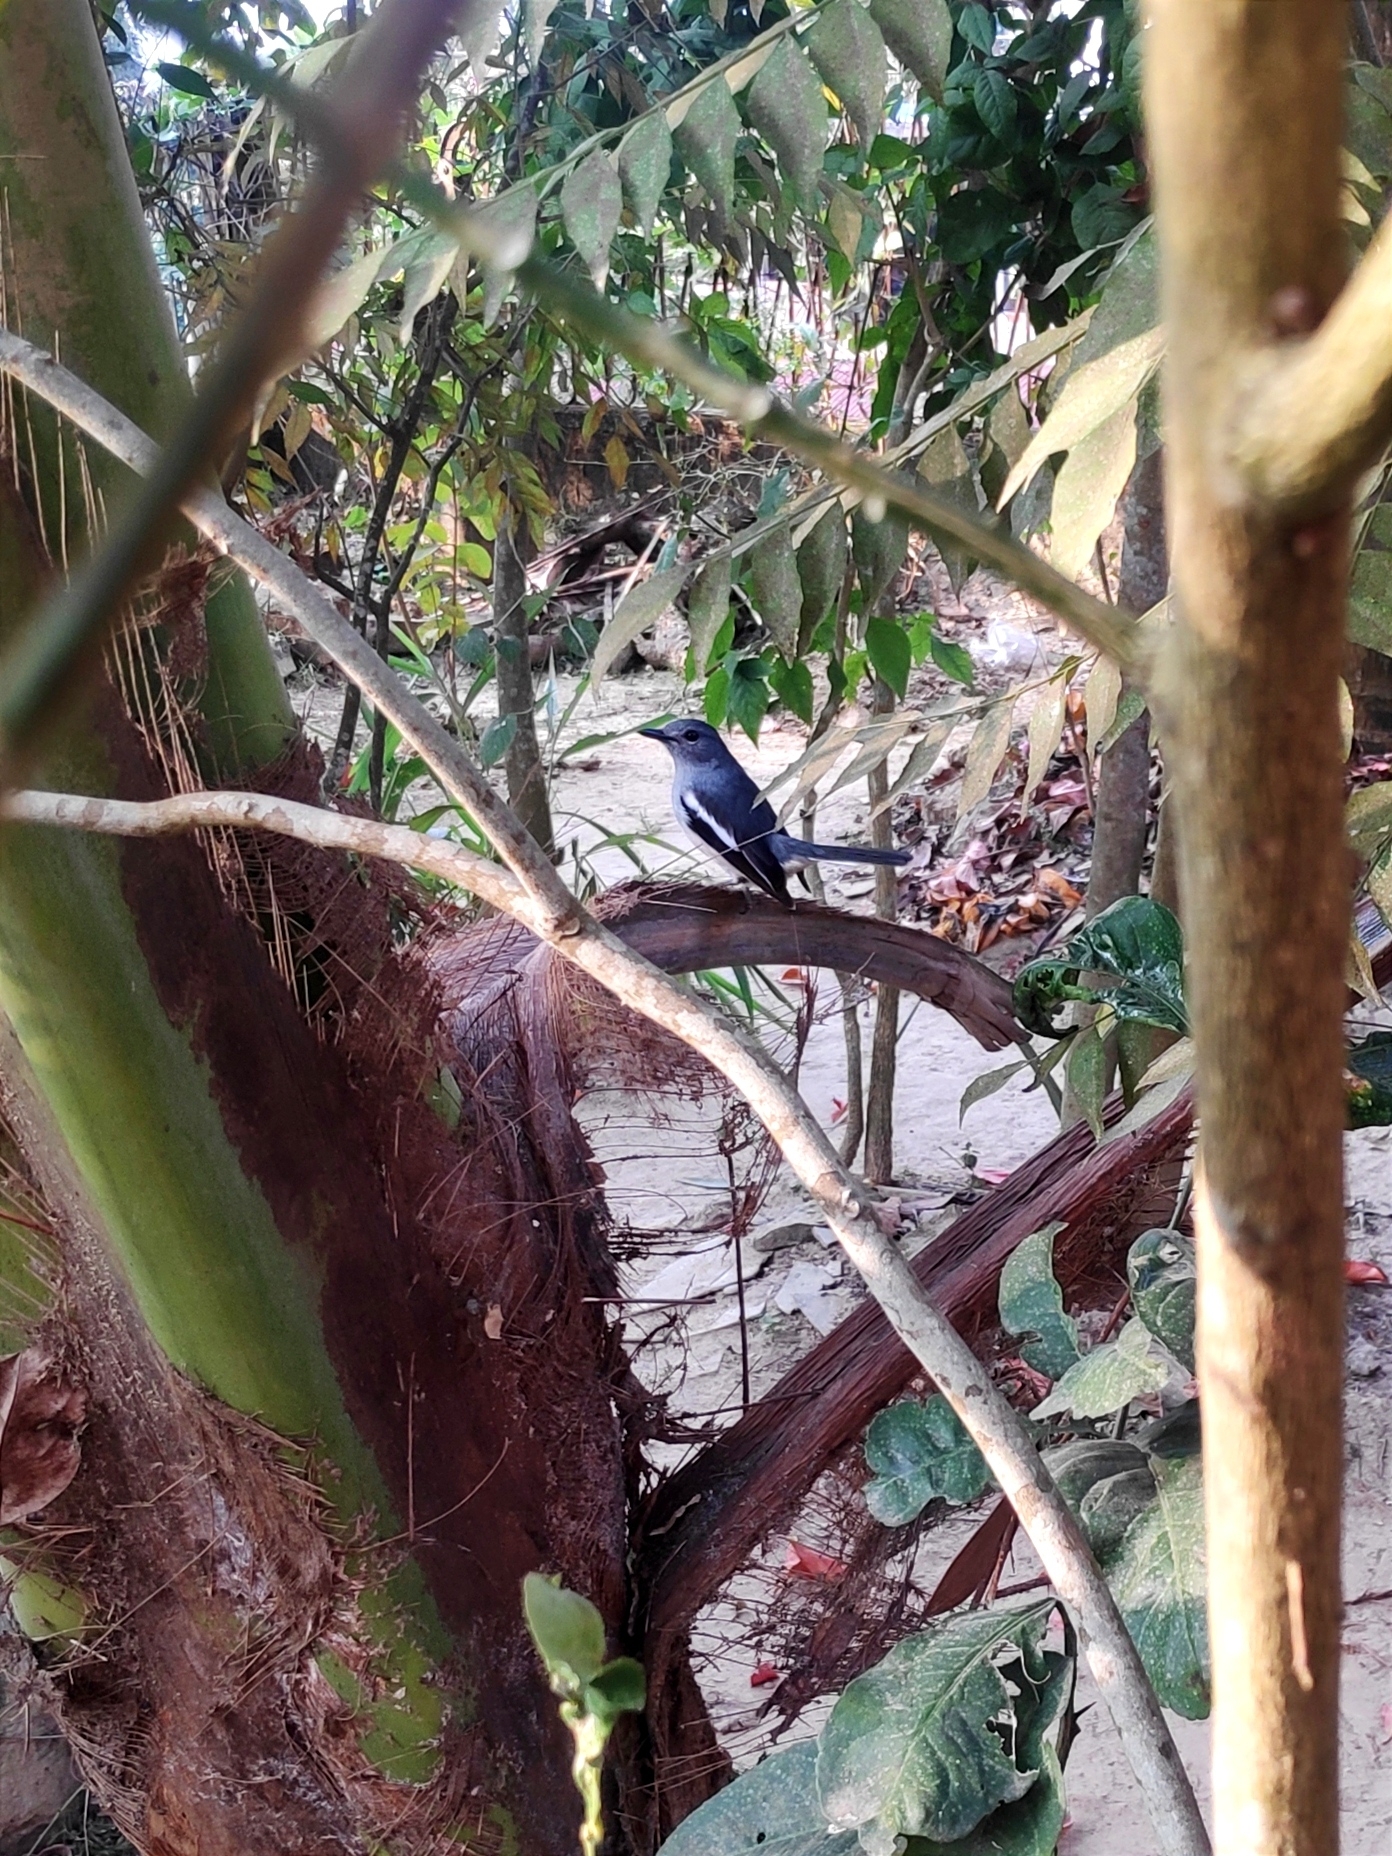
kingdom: Animalia
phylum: Chordata
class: Aves
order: Passeriformes
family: Muscicapidae
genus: Copsychus
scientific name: Copsychus saularis
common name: Oriental magpie-robin
